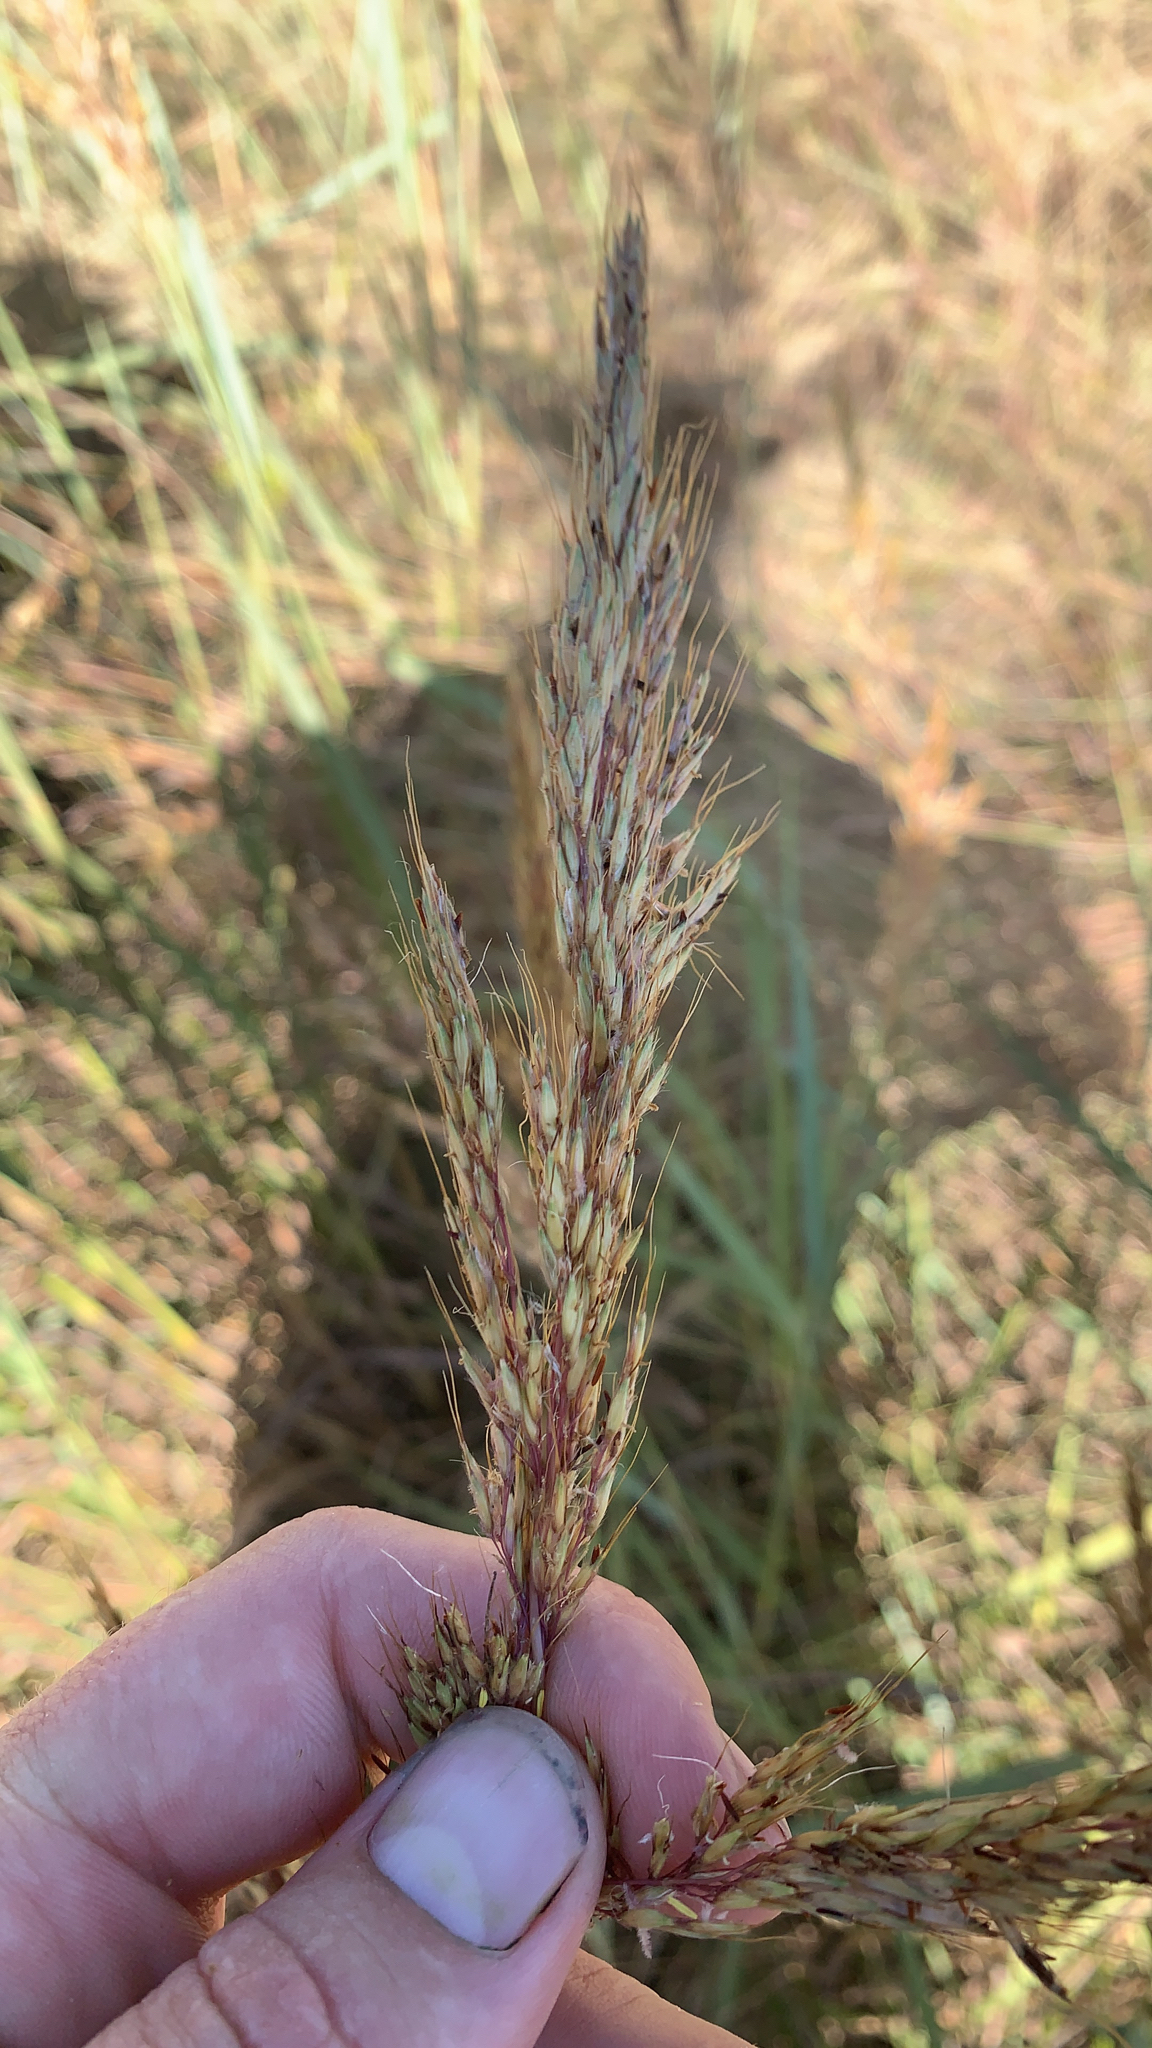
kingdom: Plantae
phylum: Tracheophyta
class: Liliopsida
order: Poales
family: Poaceae
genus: Sorghastrum
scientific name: Sorghastrum nutans
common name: Indian grass
